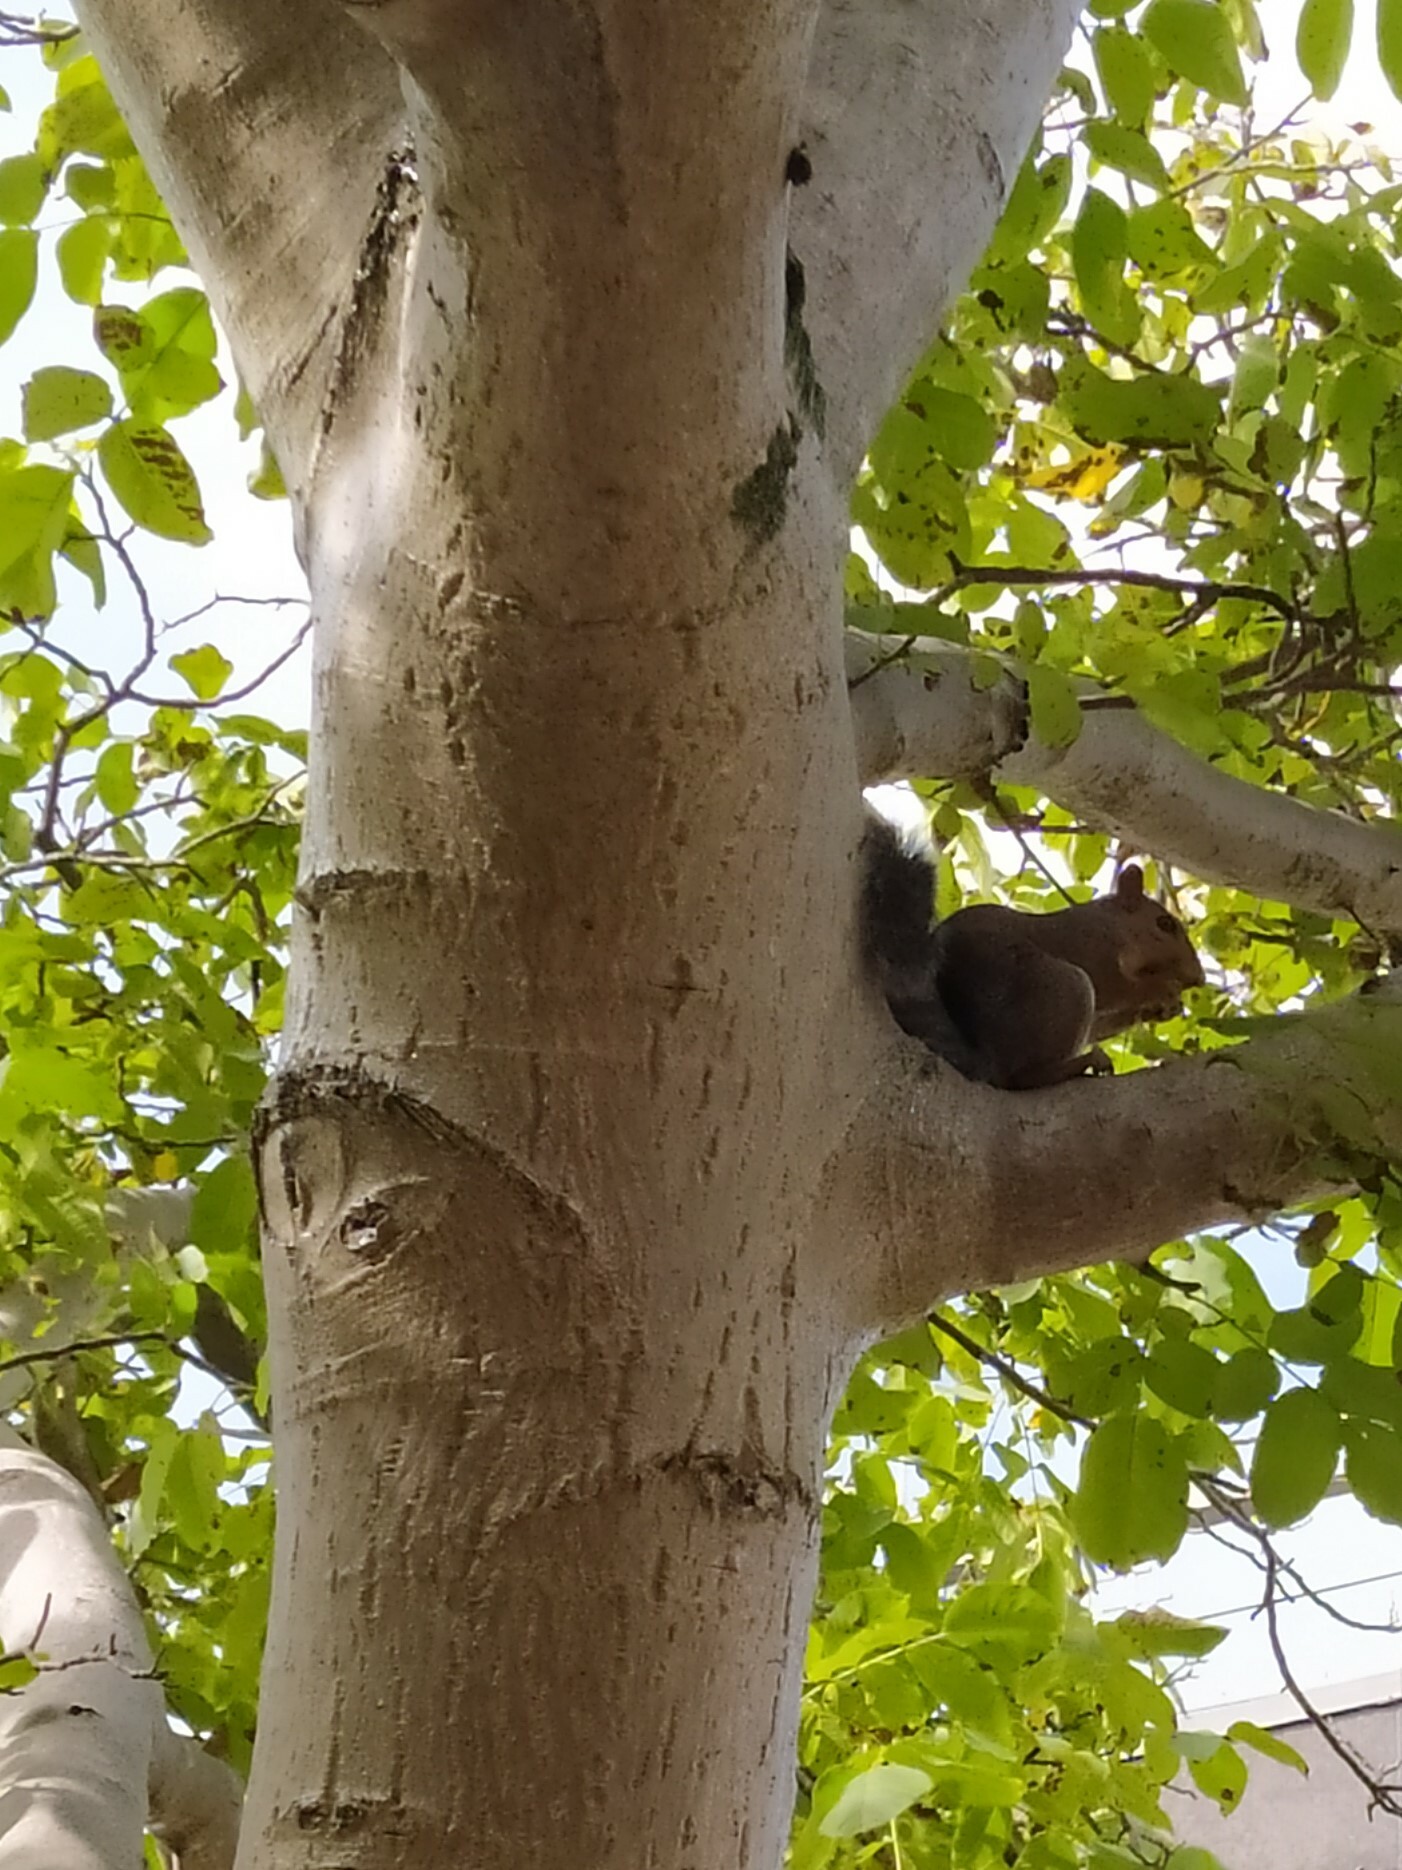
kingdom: Animalia
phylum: Chordata
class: Mammalia
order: Rodentia
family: Sciuridae
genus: Sciurus
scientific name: Sciurus carolinensis
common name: Eastern gray squirrel
